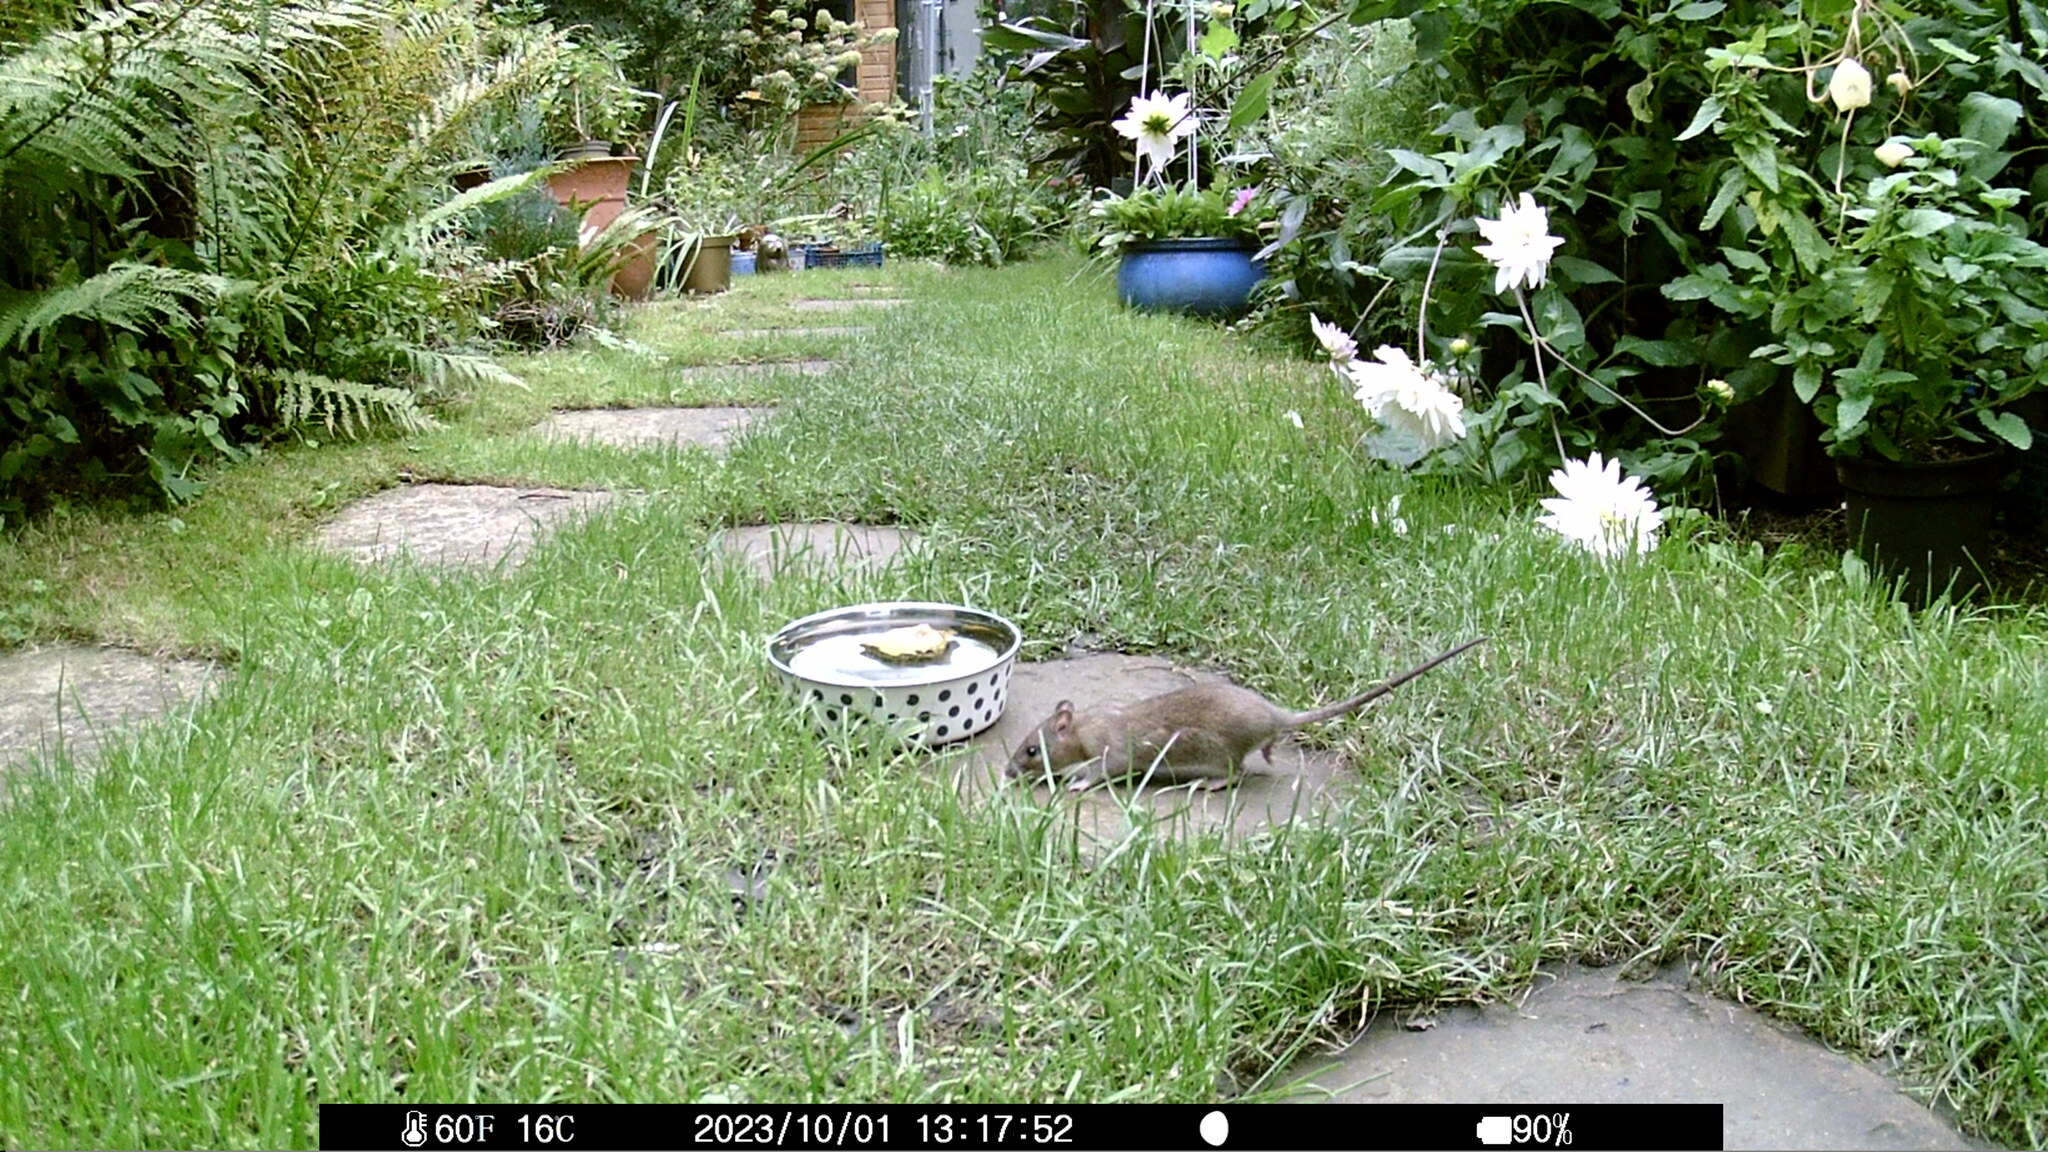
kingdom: Animalia
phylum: Chordata
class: Mammalia
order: Rodentia
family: Muridae
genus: Rattus
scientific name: Rattus norvegicus
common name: Brown rat
